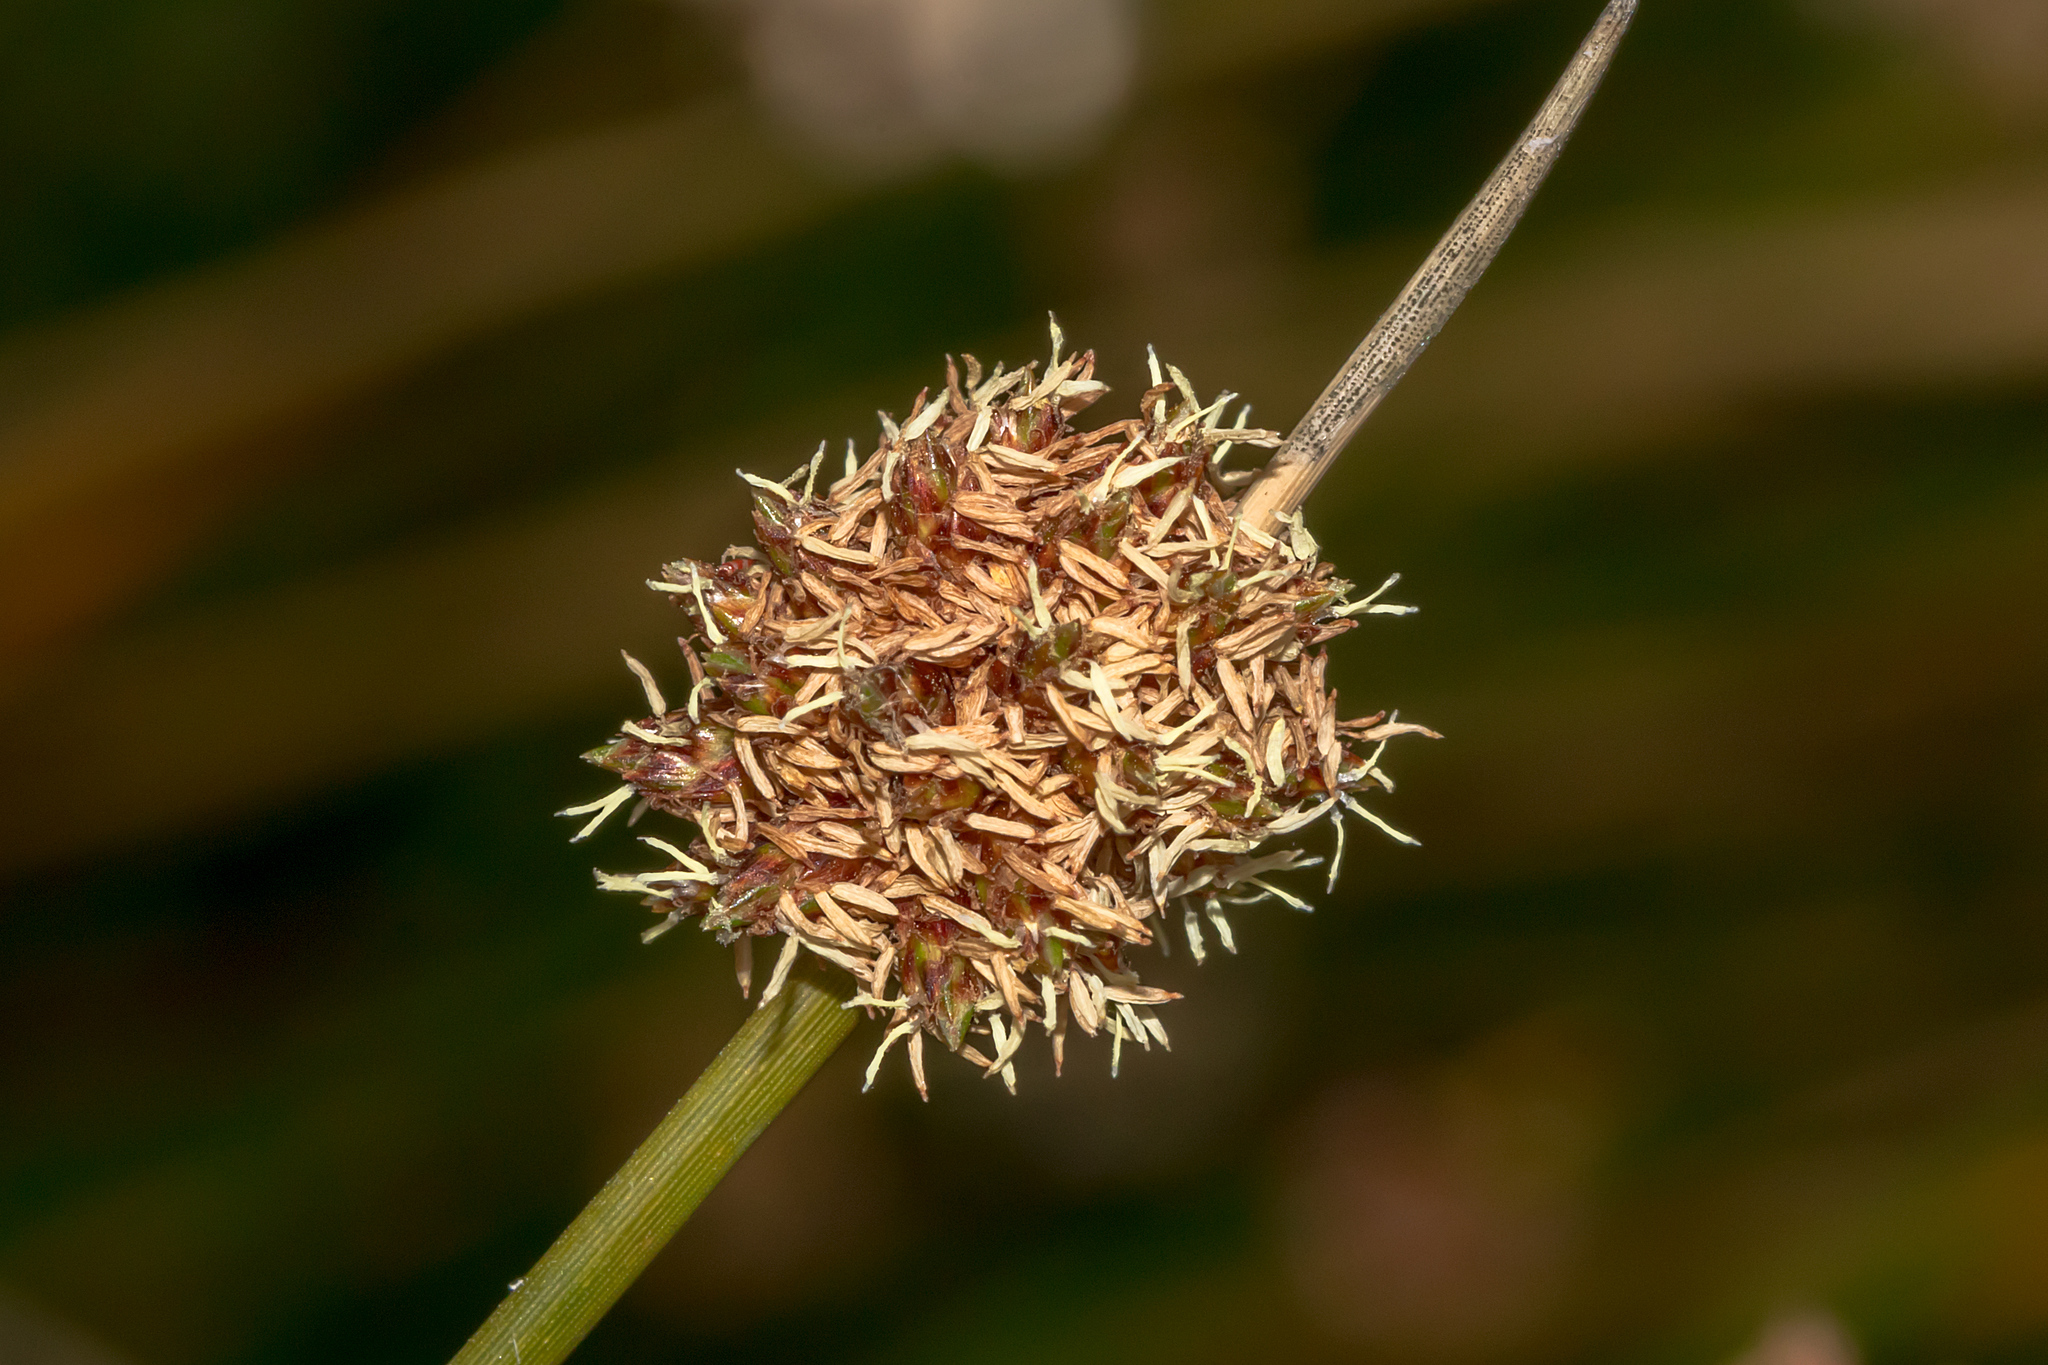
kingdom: Plantae
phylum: Tracheophyta
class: Liliopsida
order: Poales
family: Cyperaceae
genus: Ficinia
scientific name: Ficinia nodosa
